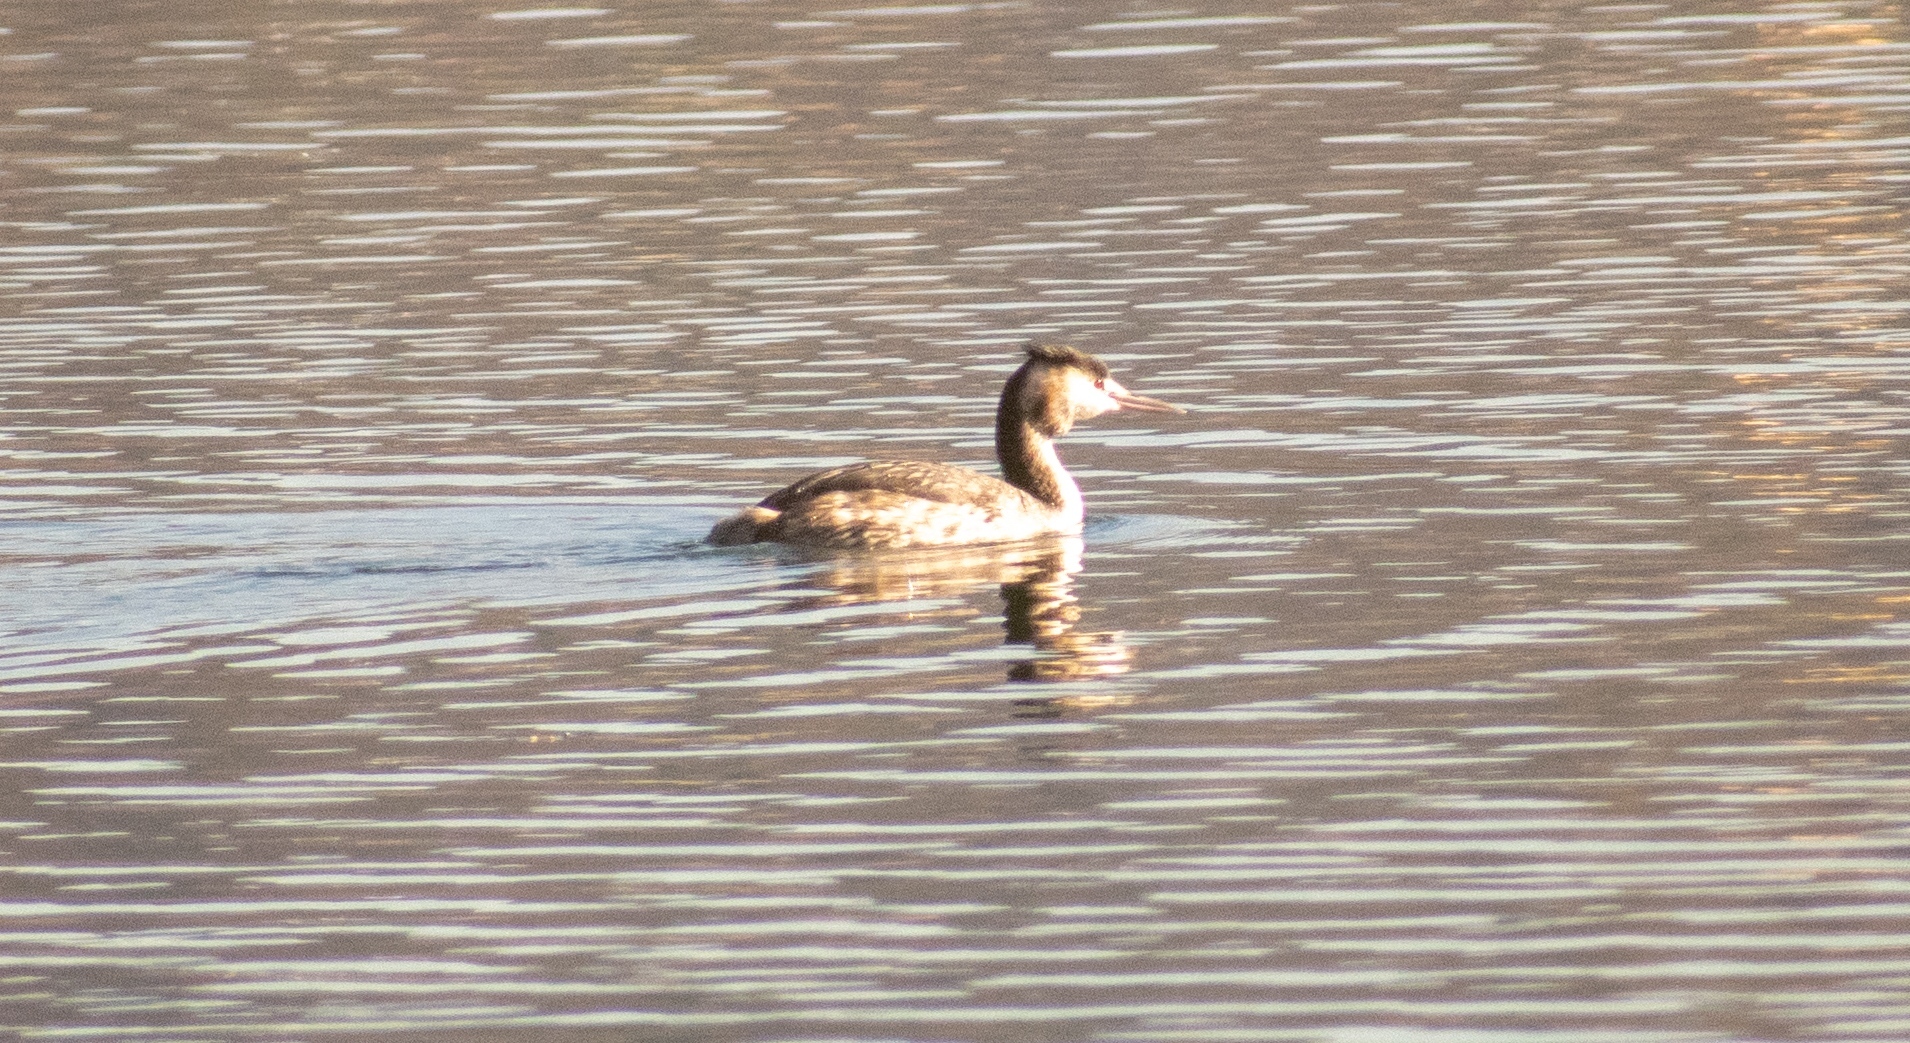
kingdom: Animalia
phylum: Chordata
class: Aves
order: Podicipediformes
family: Podicipedidae
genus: Podiceps
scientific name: Podiceps cristatus
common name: Great crested grebe
